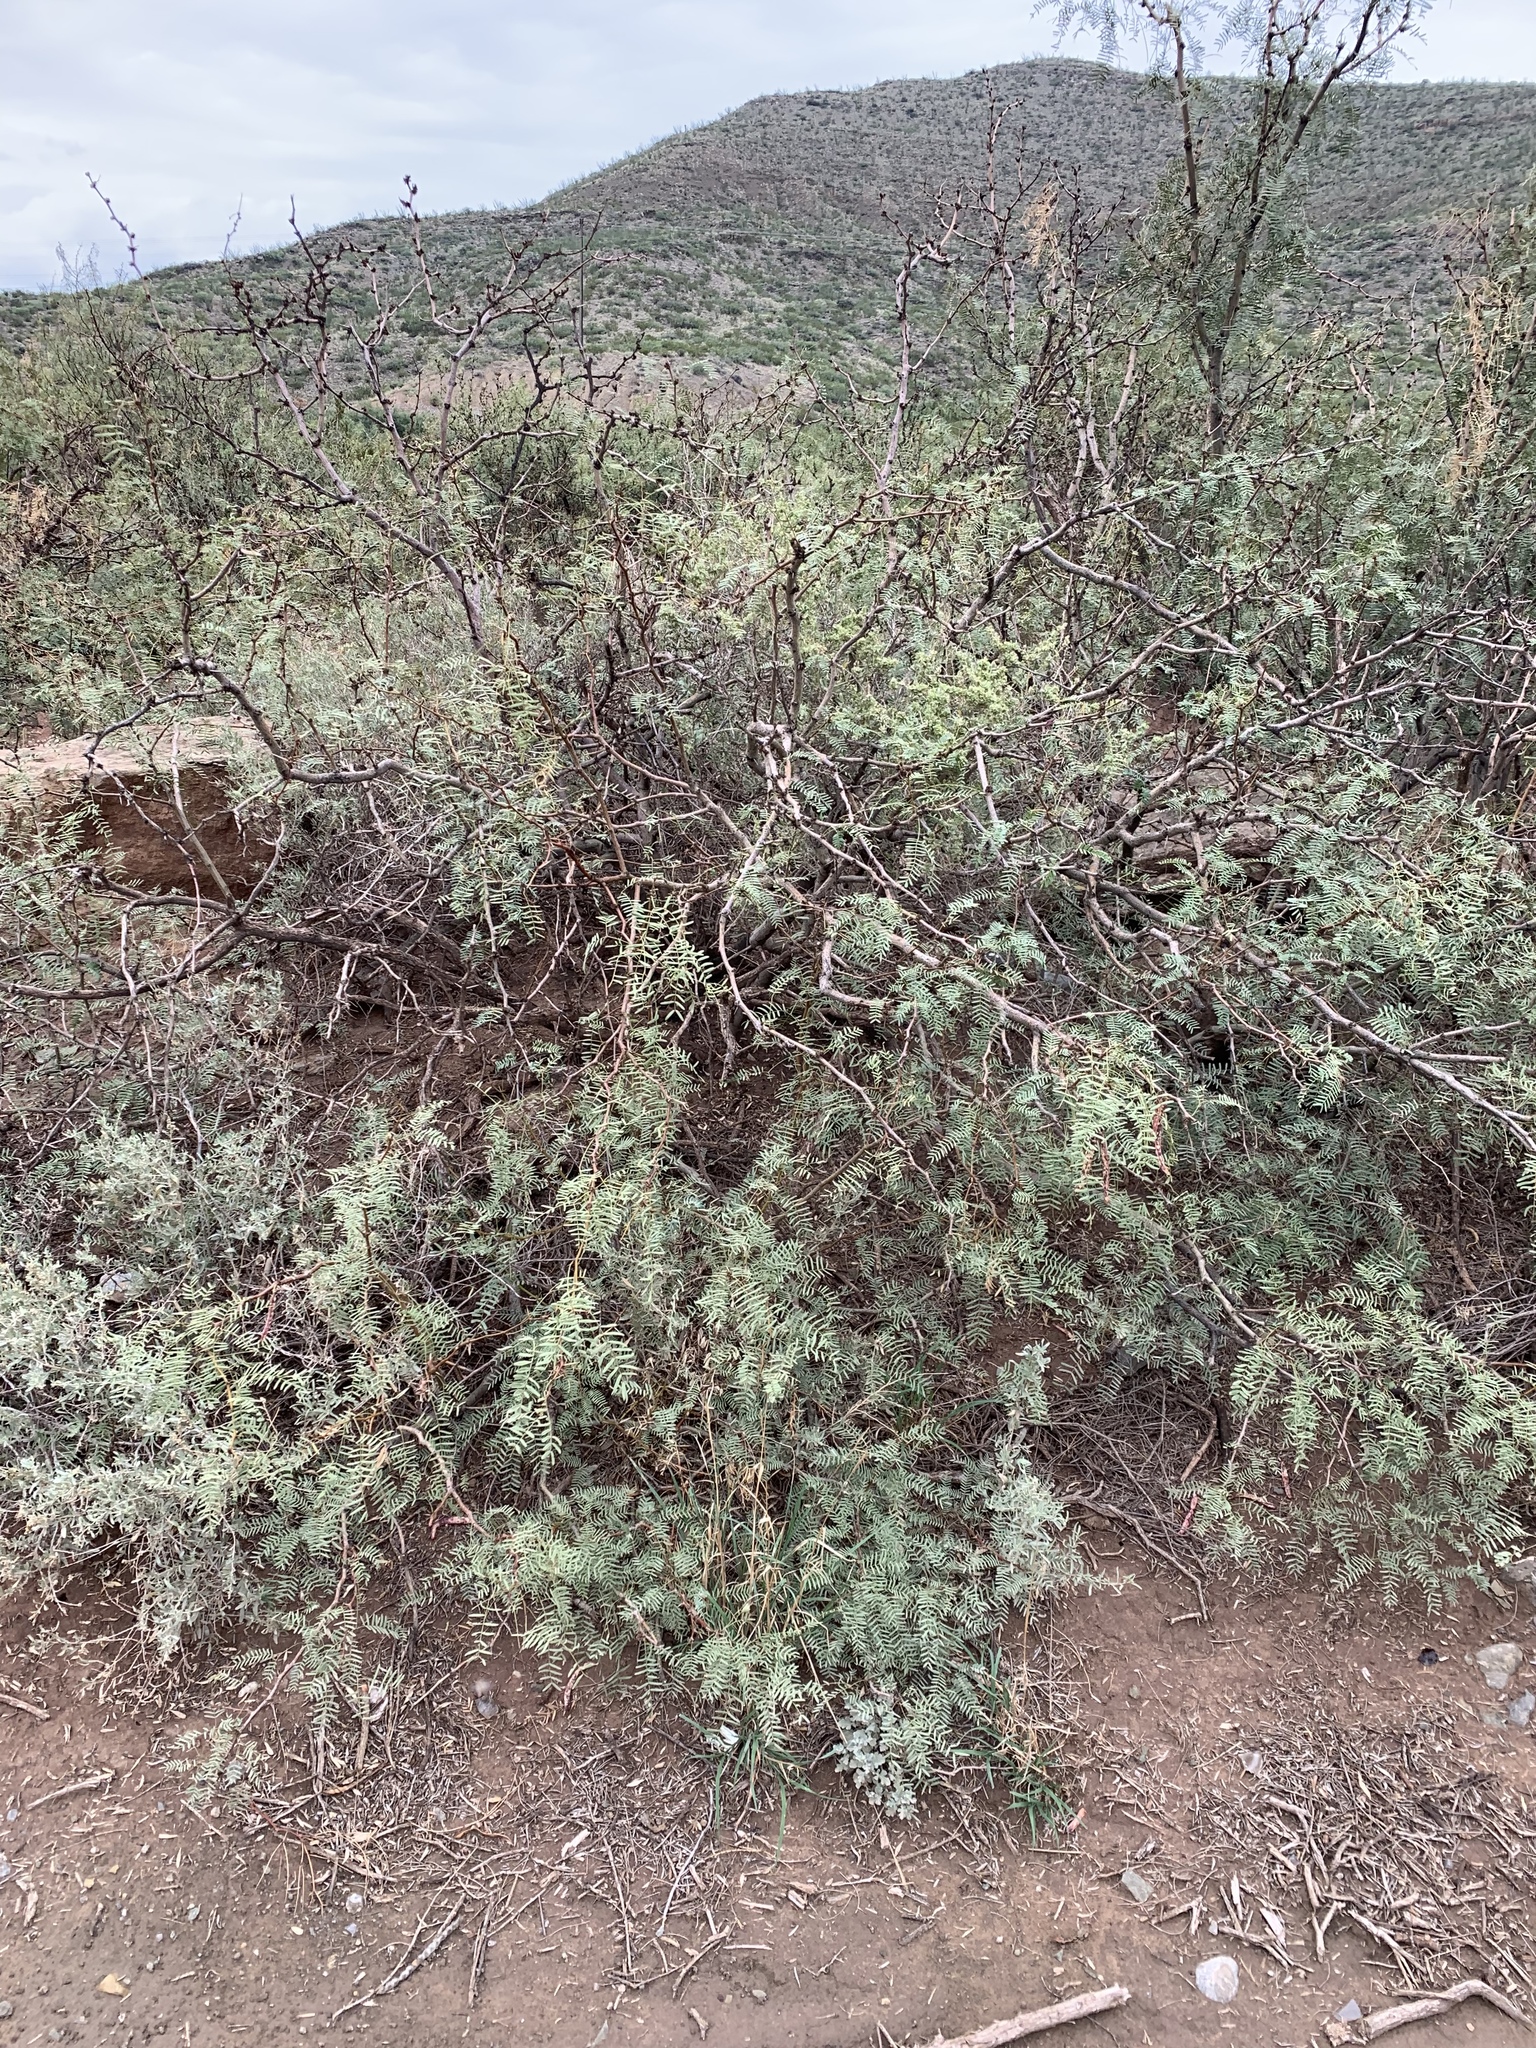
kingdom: Plantae
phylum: Tracheophyta
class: Magnoliopsida
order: Fabales
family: Fabaceae
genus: Prosopis
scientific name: Prosopis glandulosa
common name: Honey mesquite
